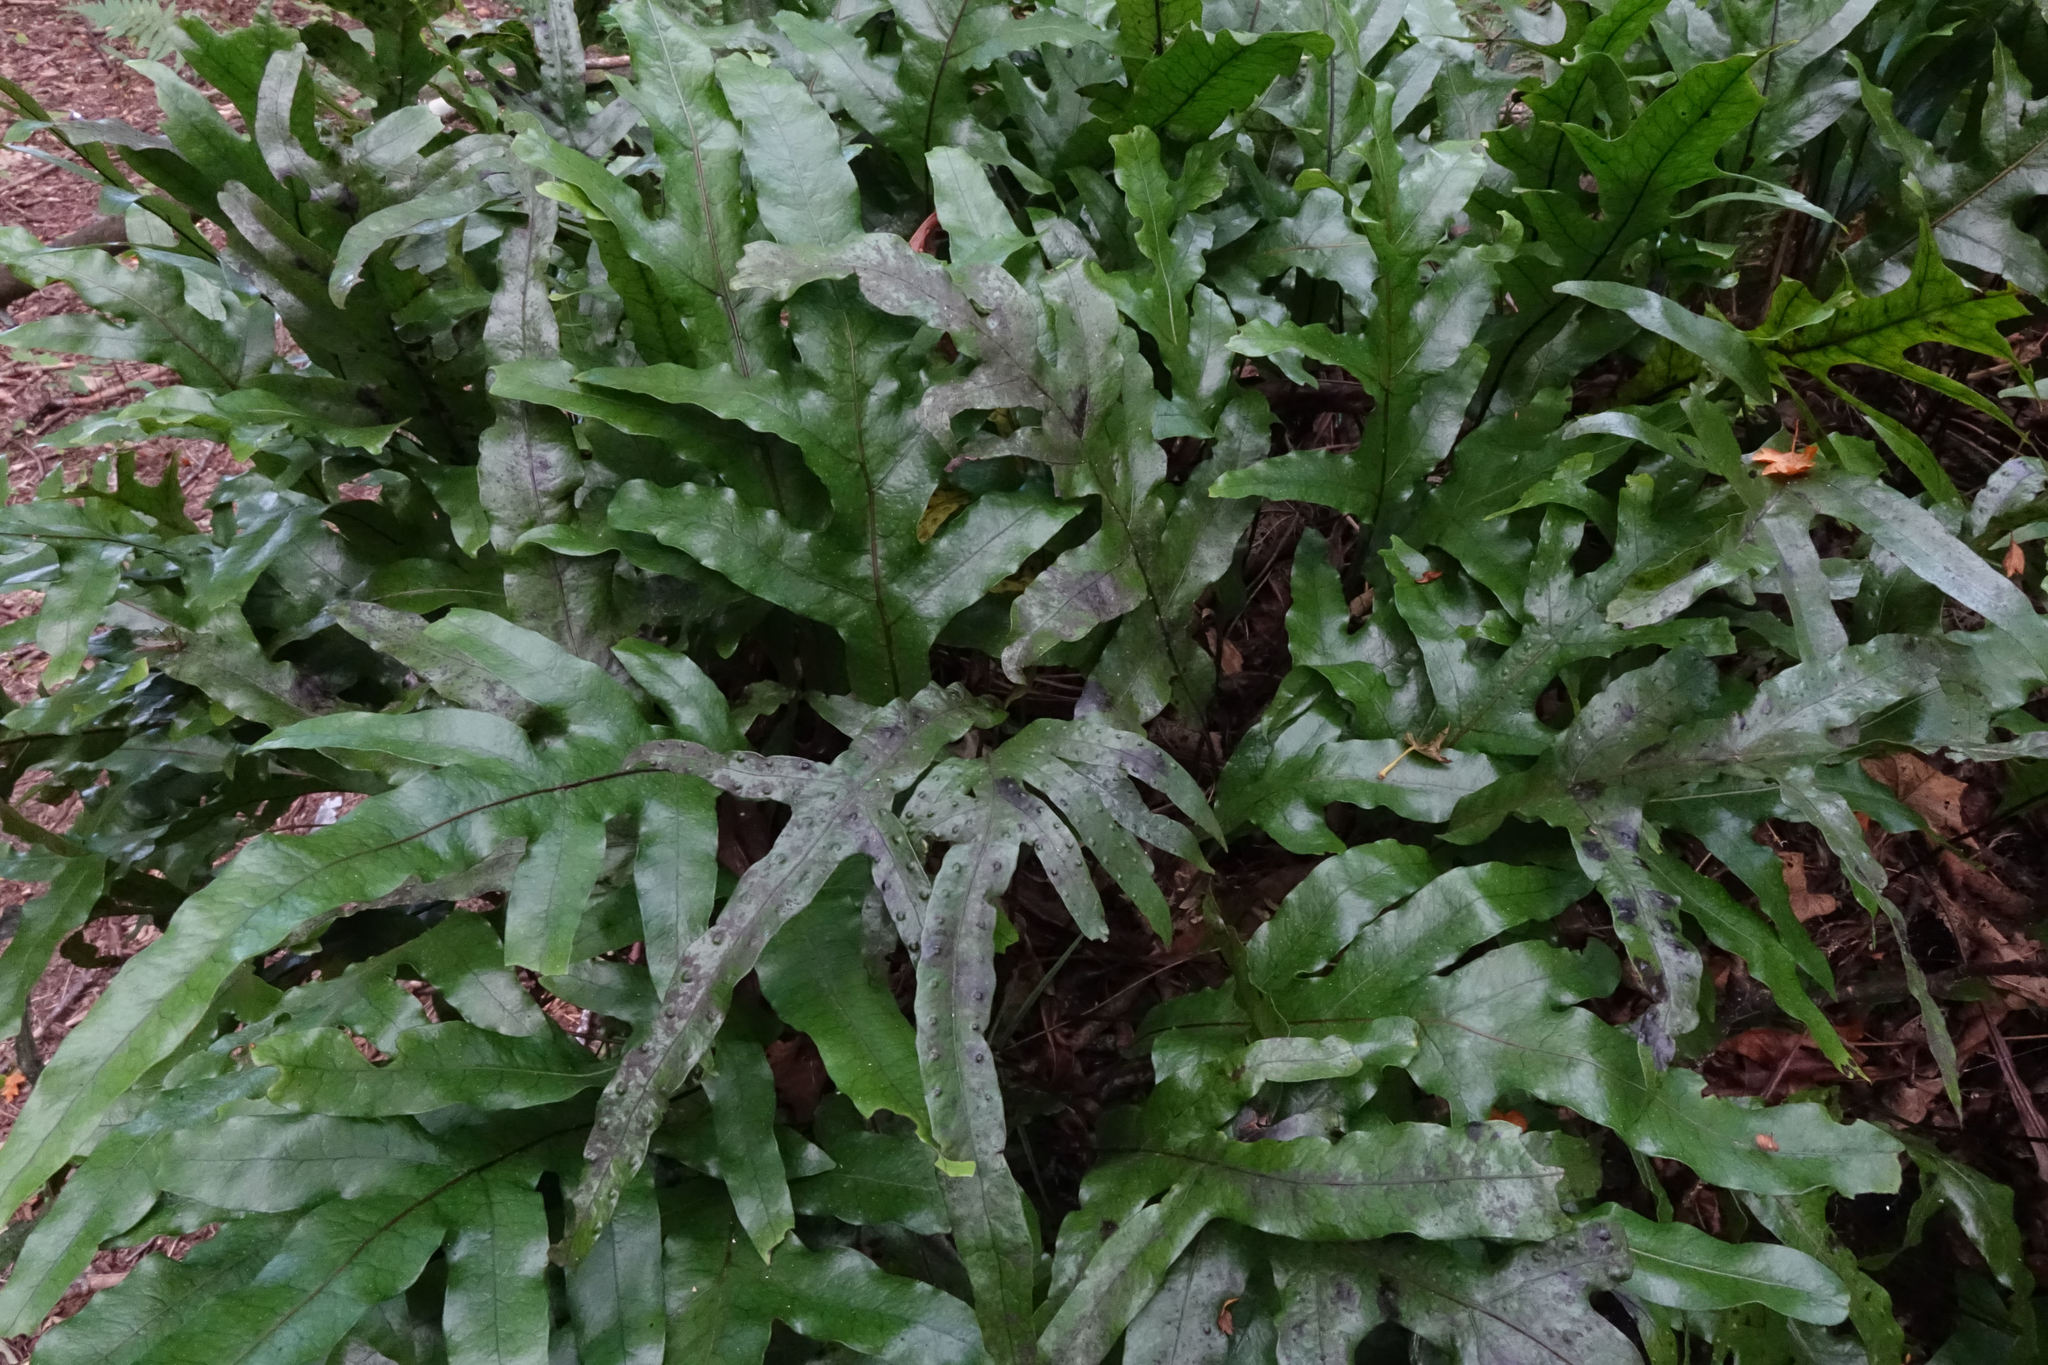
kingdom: Plantae
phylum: Tracheophyta
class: Polypodiopsida
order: Polypodiales
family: Polypodiaceae
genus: Lecanopteris
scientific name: Lecanopteris pustulata
